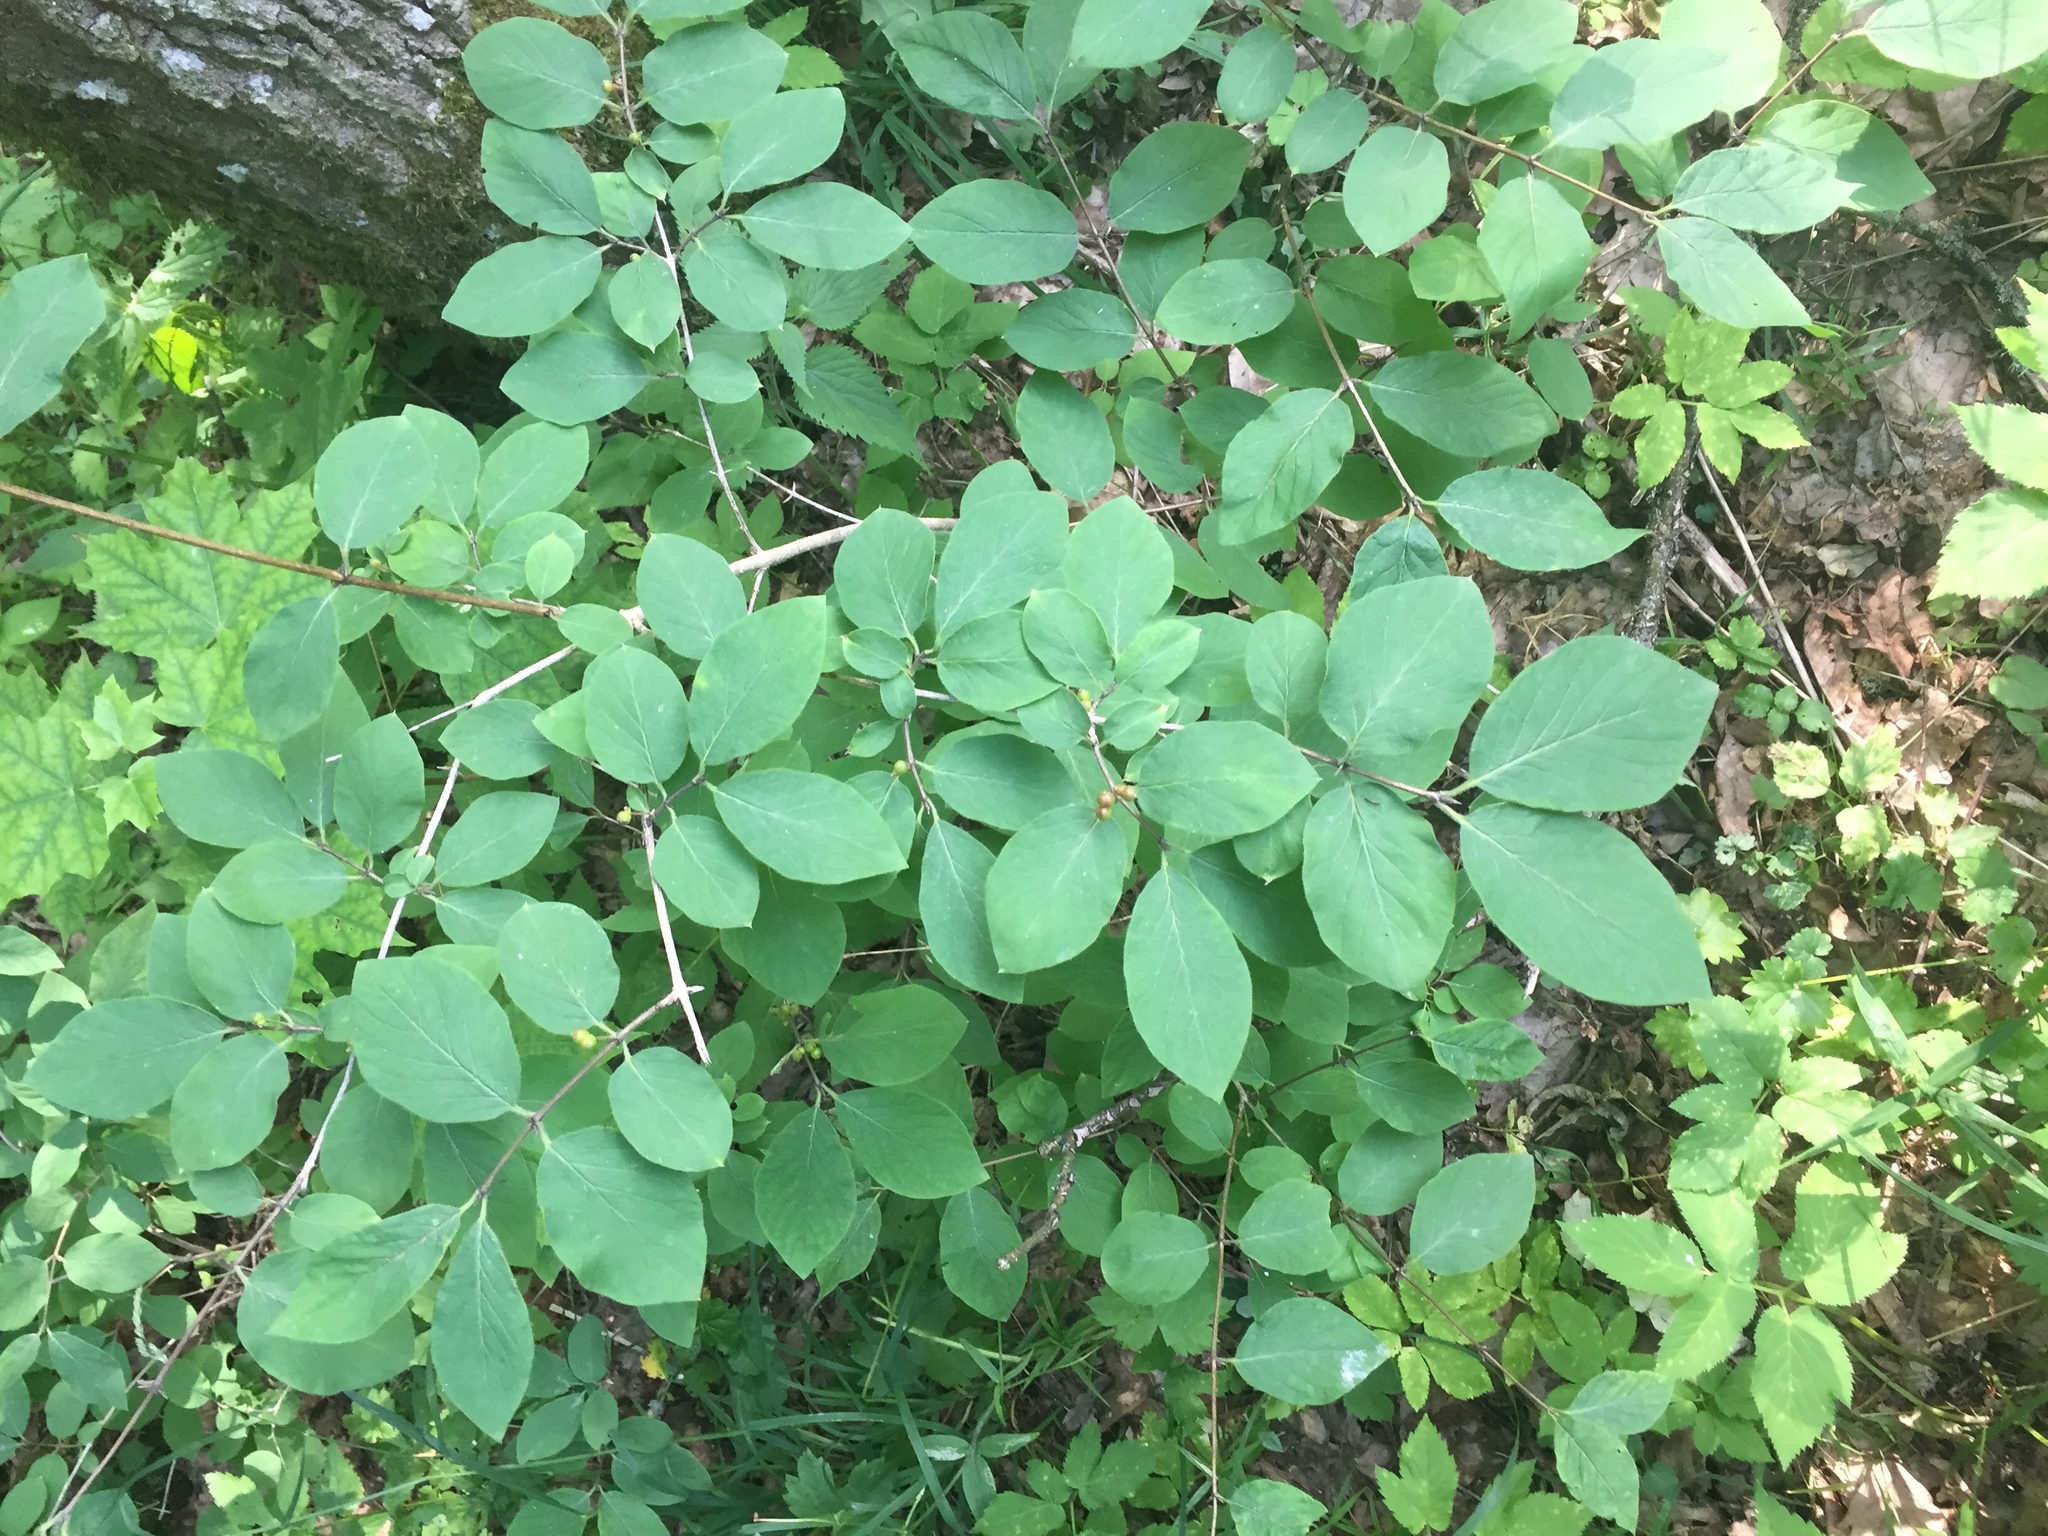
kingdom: Plantae
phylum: Tracheophyta
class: Magnoliopsida
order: Dipsacales
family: Caprifoliaceae
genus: Lonicera
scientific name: Lonicera xylosteum
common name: Fly honeysuckle
